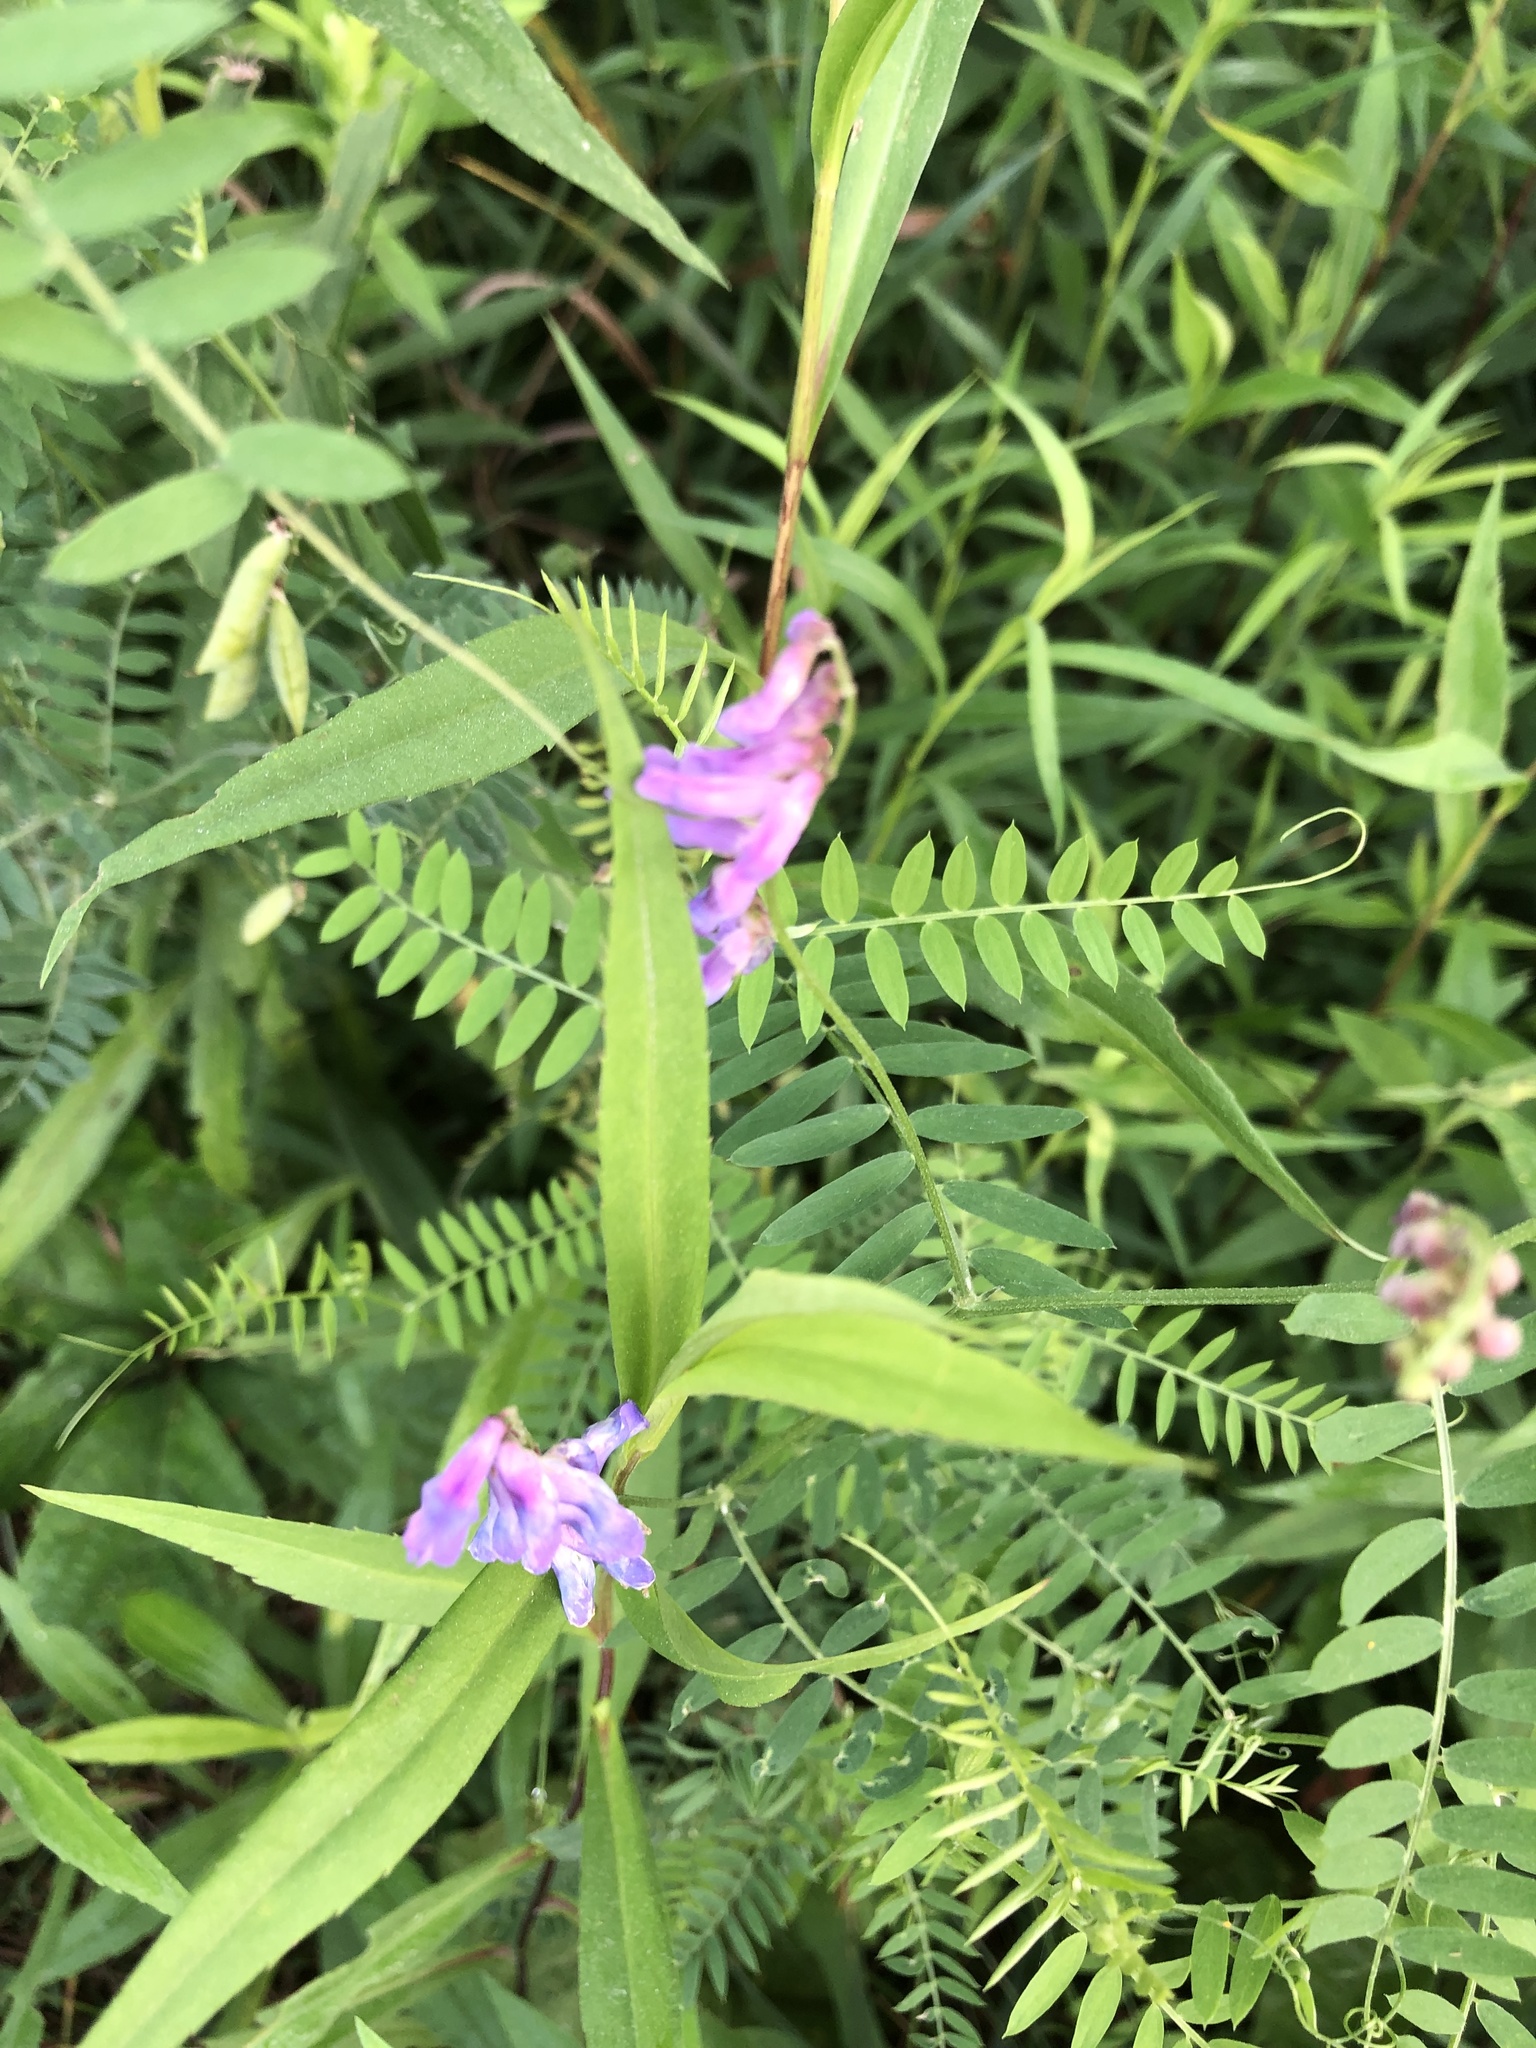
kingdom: Plantae
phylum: Tracheophyta
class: Magnoliopsida
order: Fabales
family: Fabaceae
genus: Vicia
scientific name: Vicia cracca
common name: Bird vetch
